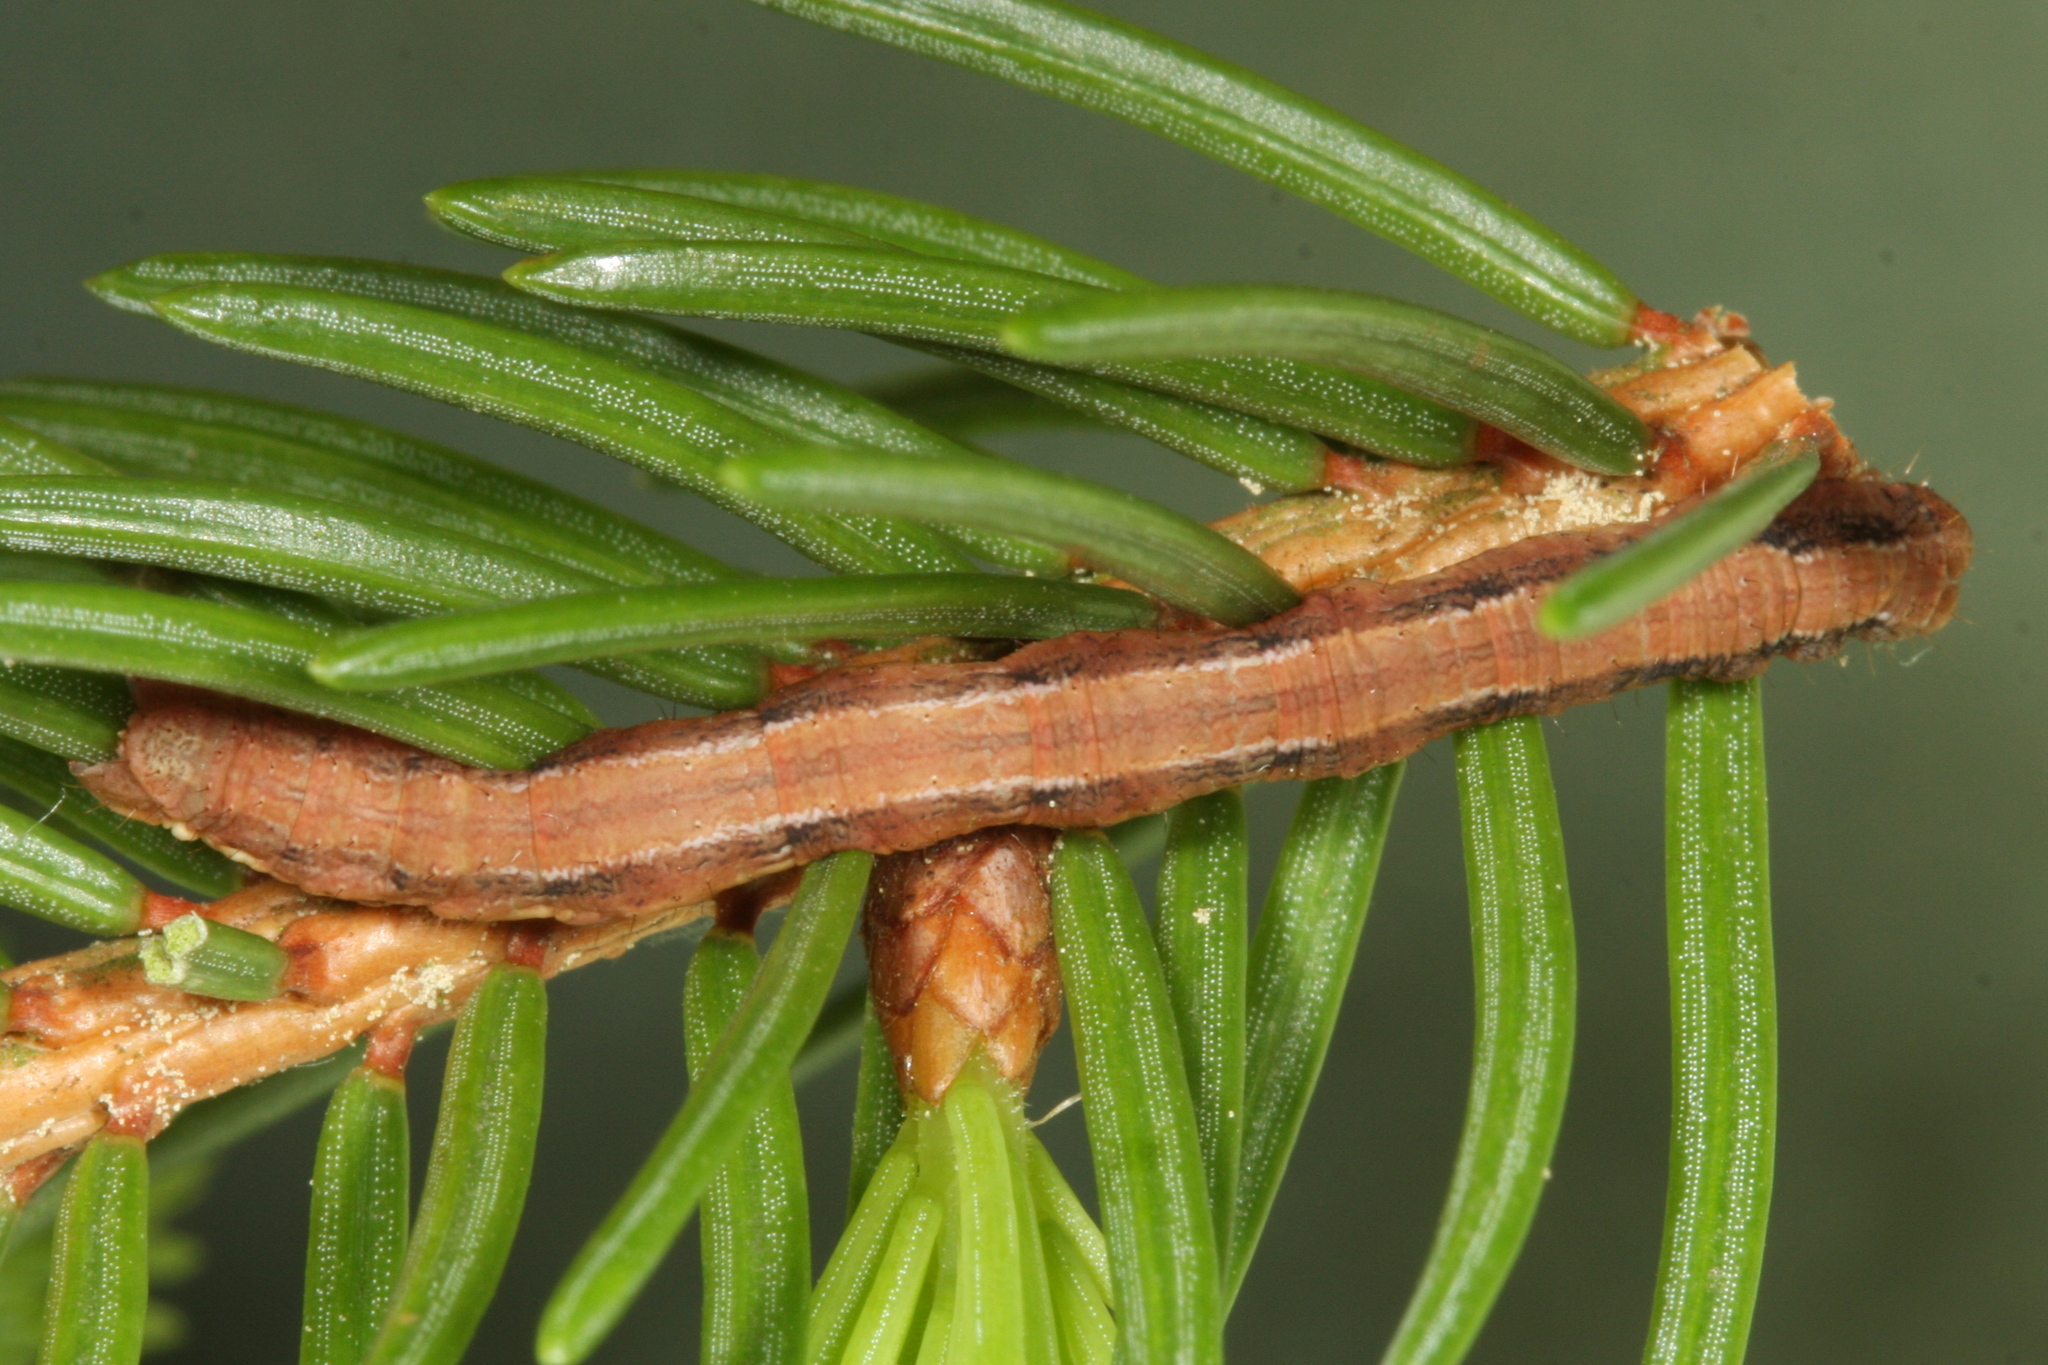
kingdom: Animalia
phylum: Arthropoda
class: Insecta
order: Lepidoptera
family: Geometridae
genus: Peribatodes
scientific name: Peribatodes secundaria
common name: Feathered beauty
